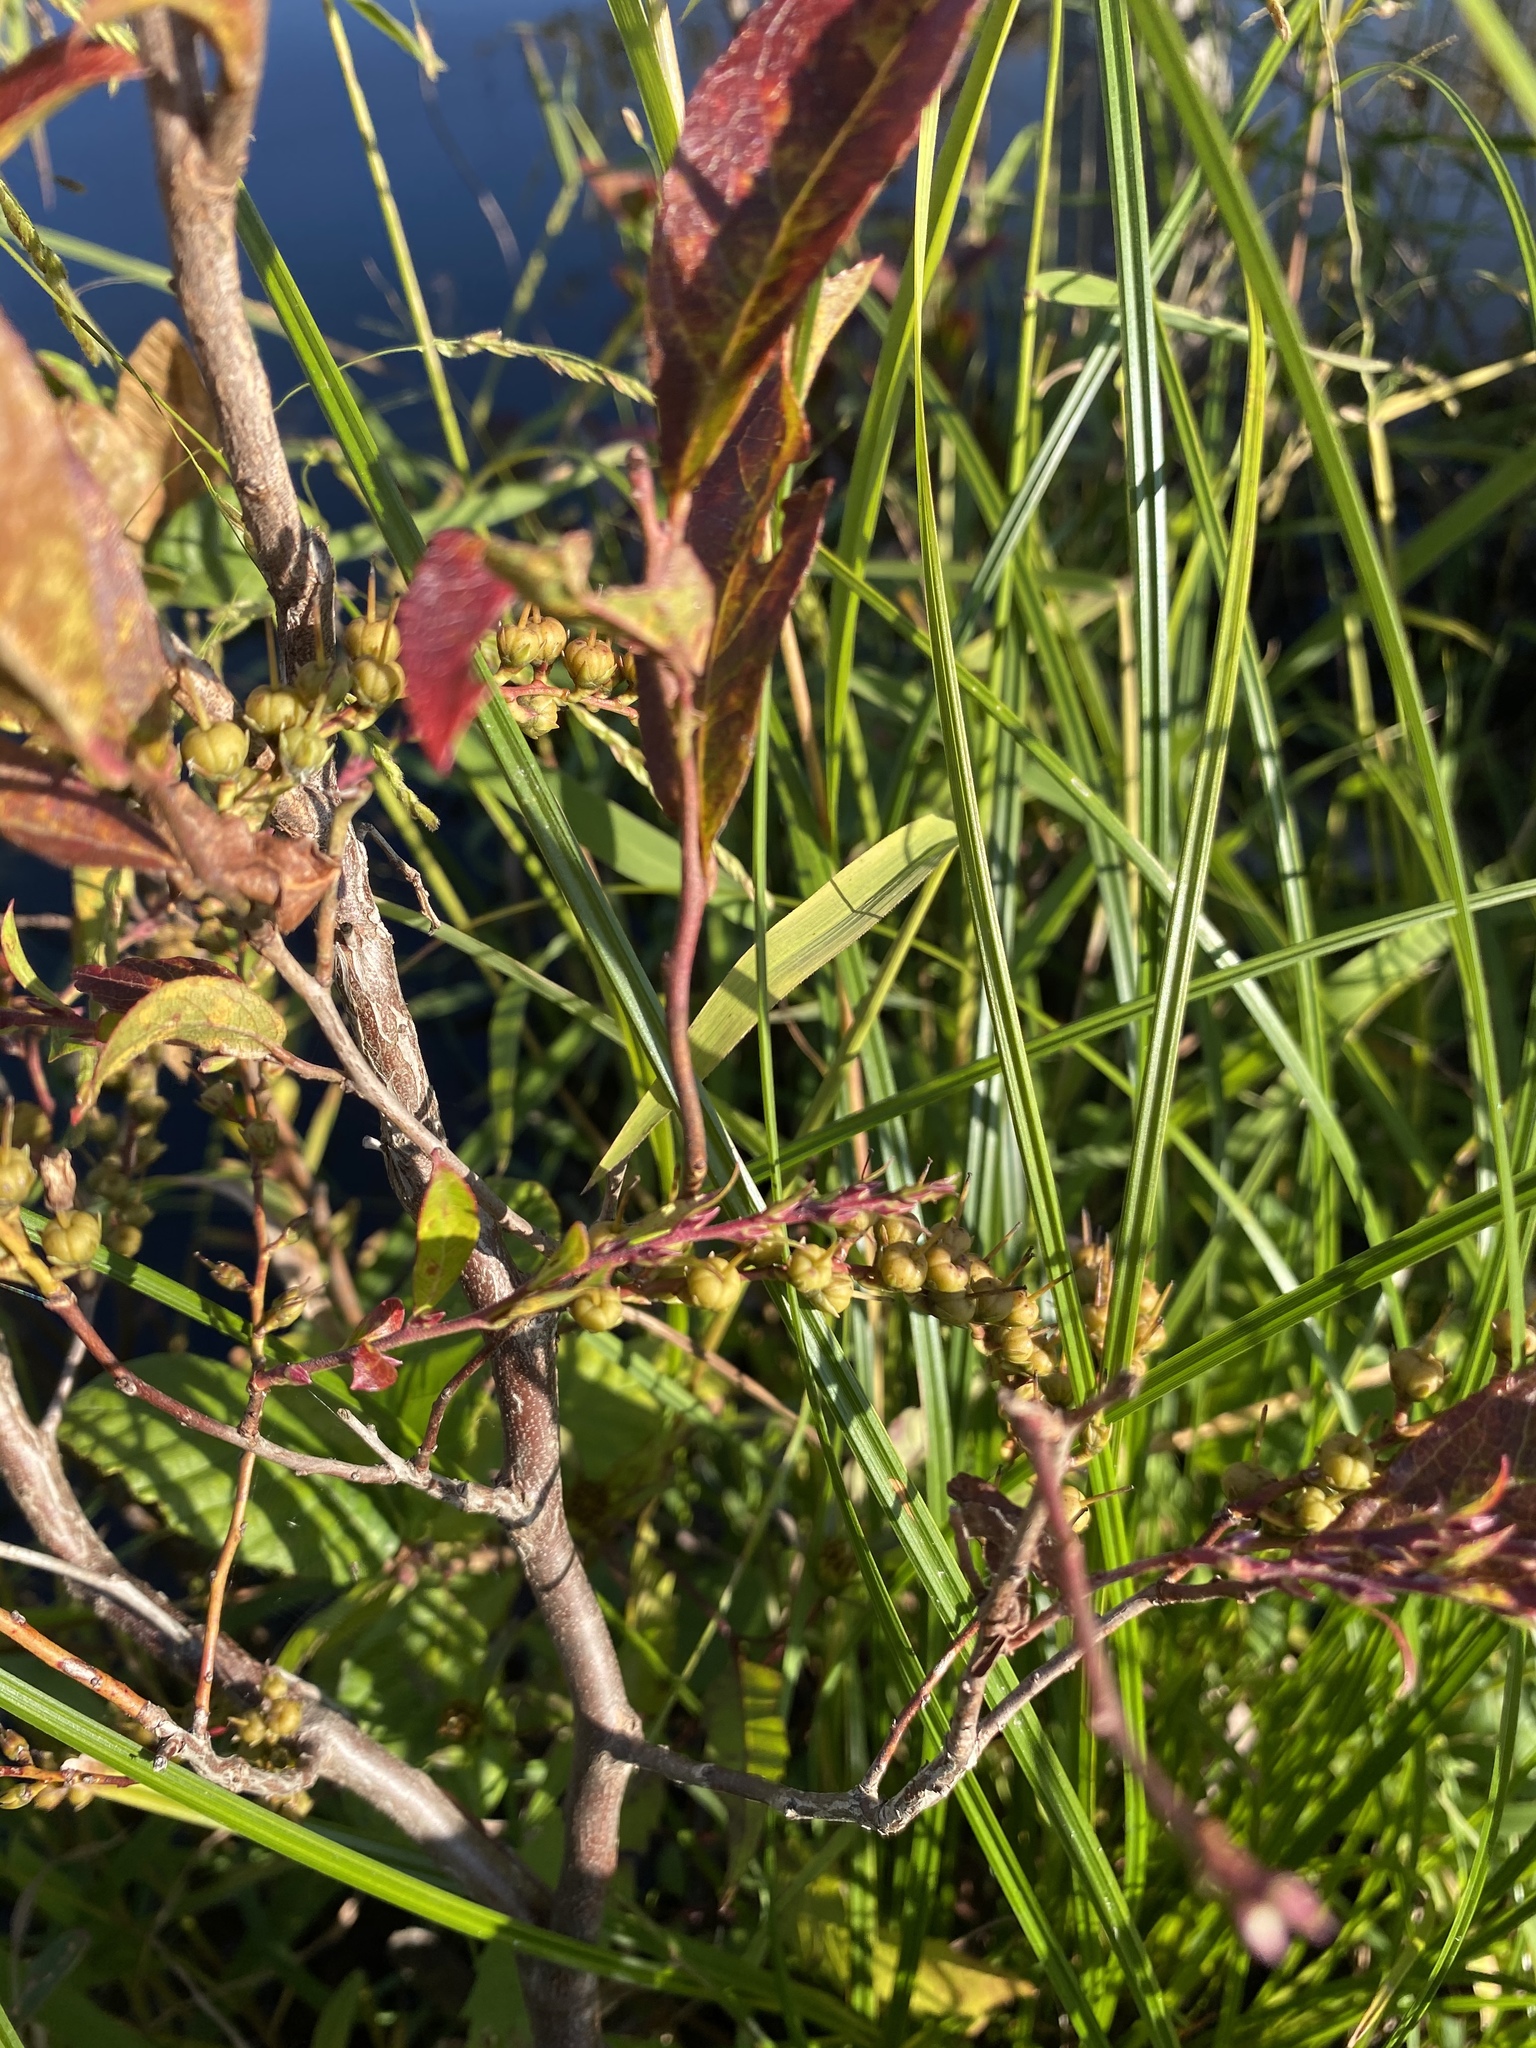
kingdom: Plantae
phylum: Tracheophyta
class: Magnoliopsida
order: Ericales
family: Ericaceae
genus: Eubotrys
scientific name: Eubotrys racemosa
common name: Fetterbush
